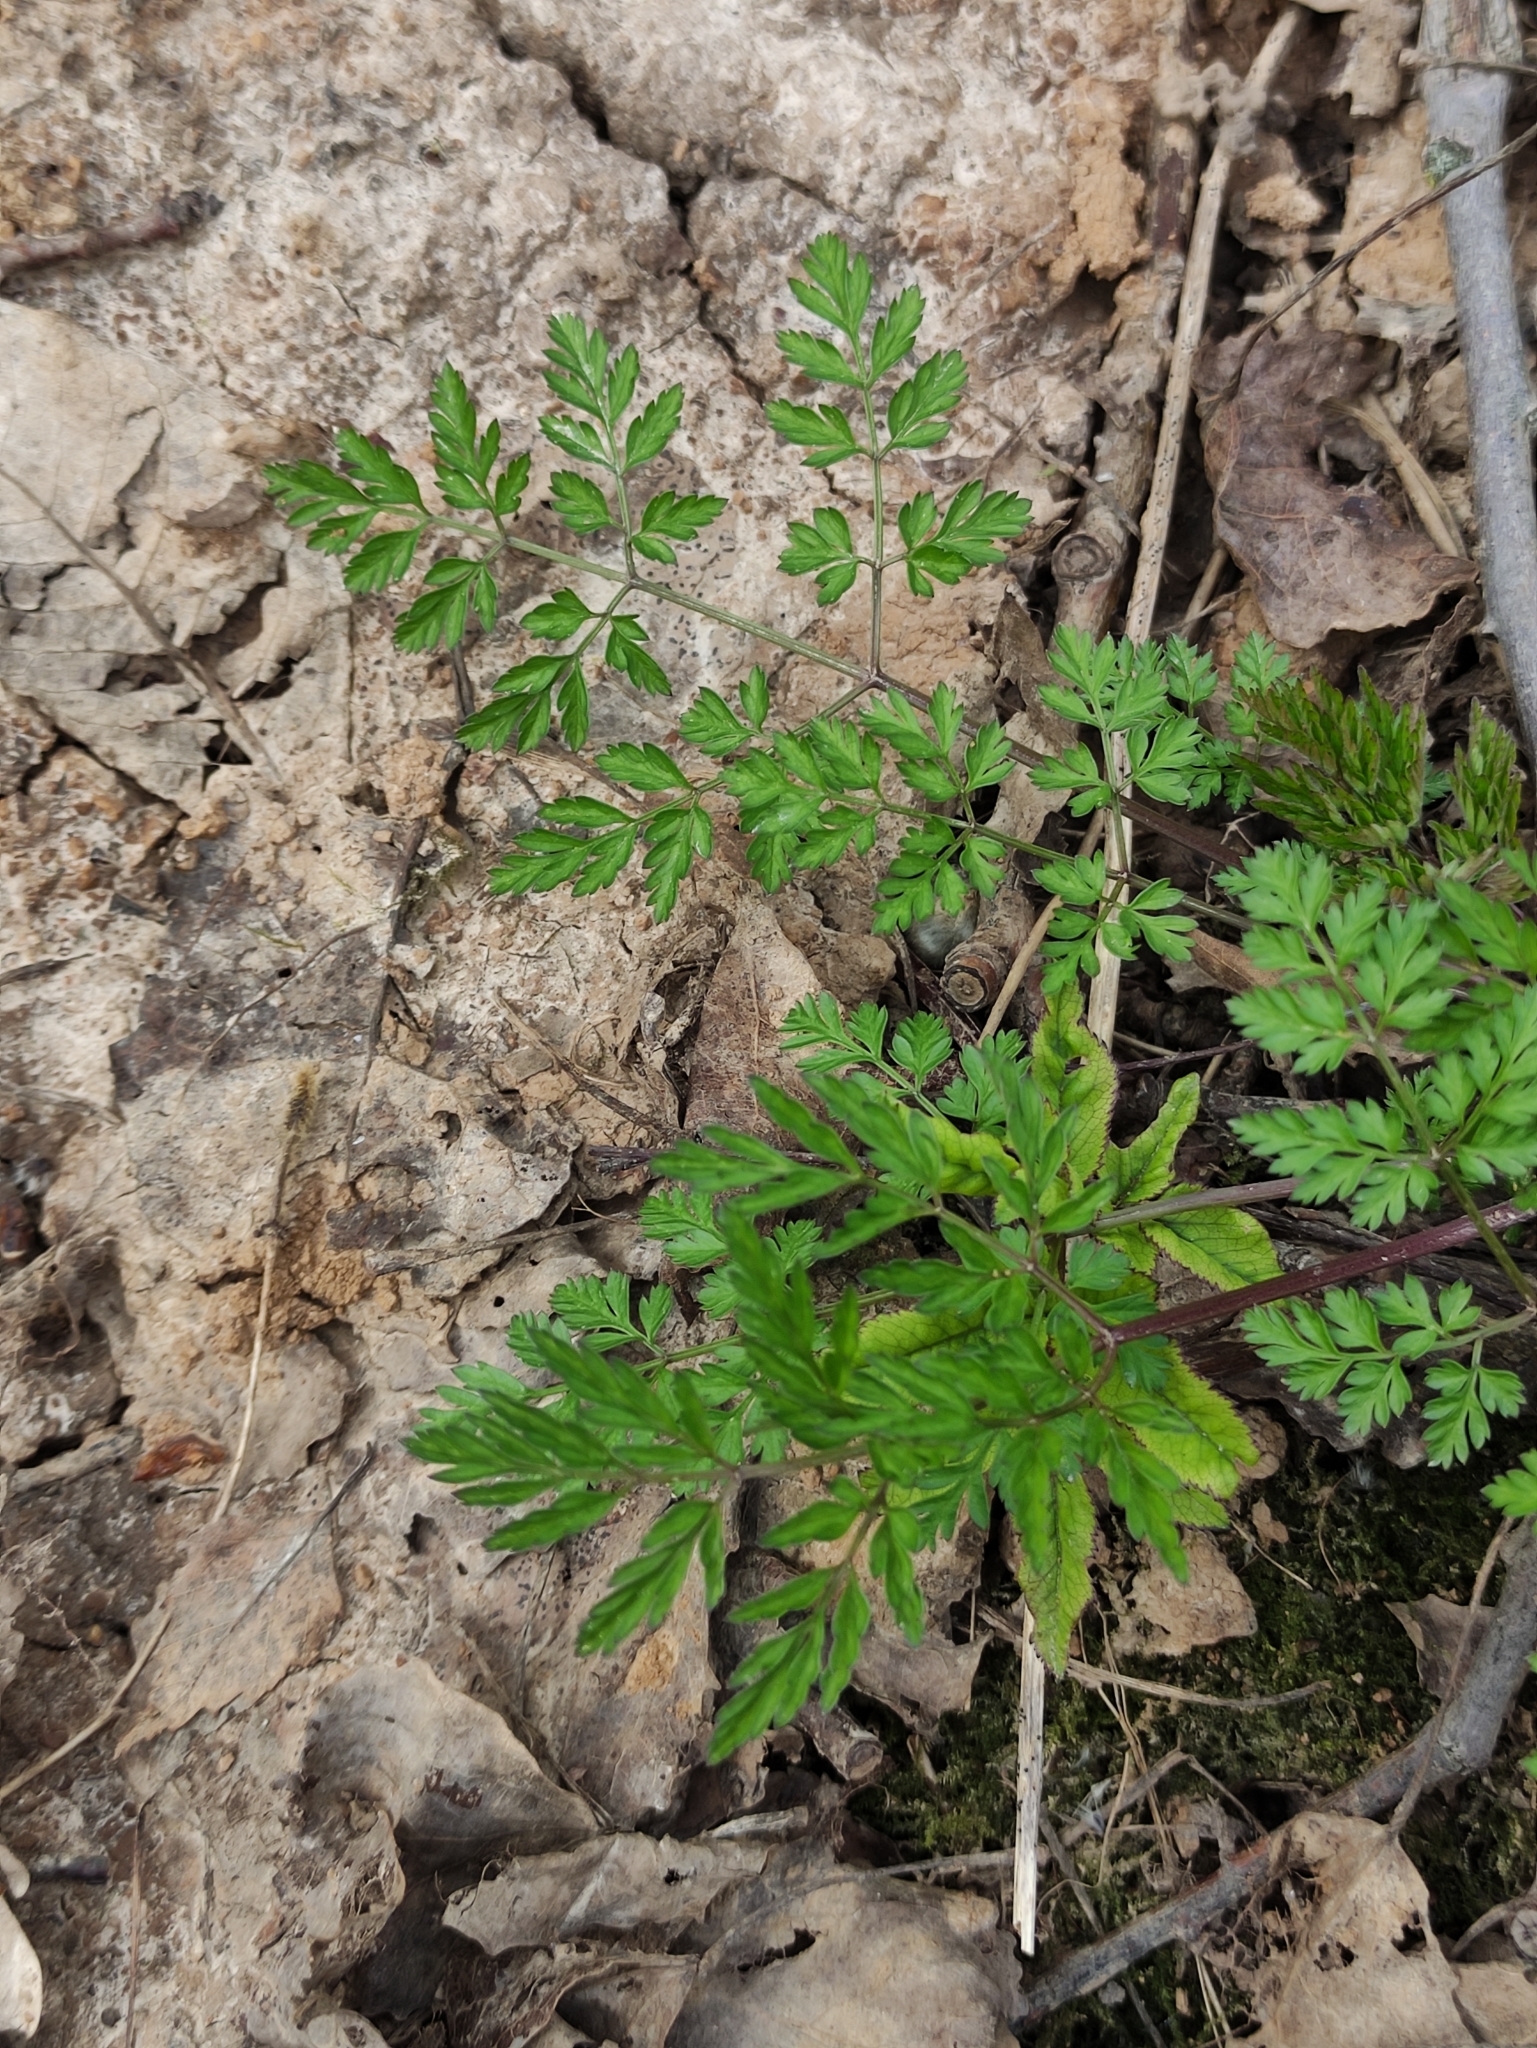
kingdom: Plantae
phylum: Tracheophyta
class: Magnoliopsida
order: Apiales
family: Apiaceae
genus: Anthriscus
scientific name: Anthriscus sylvestris
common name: Cow parsley
